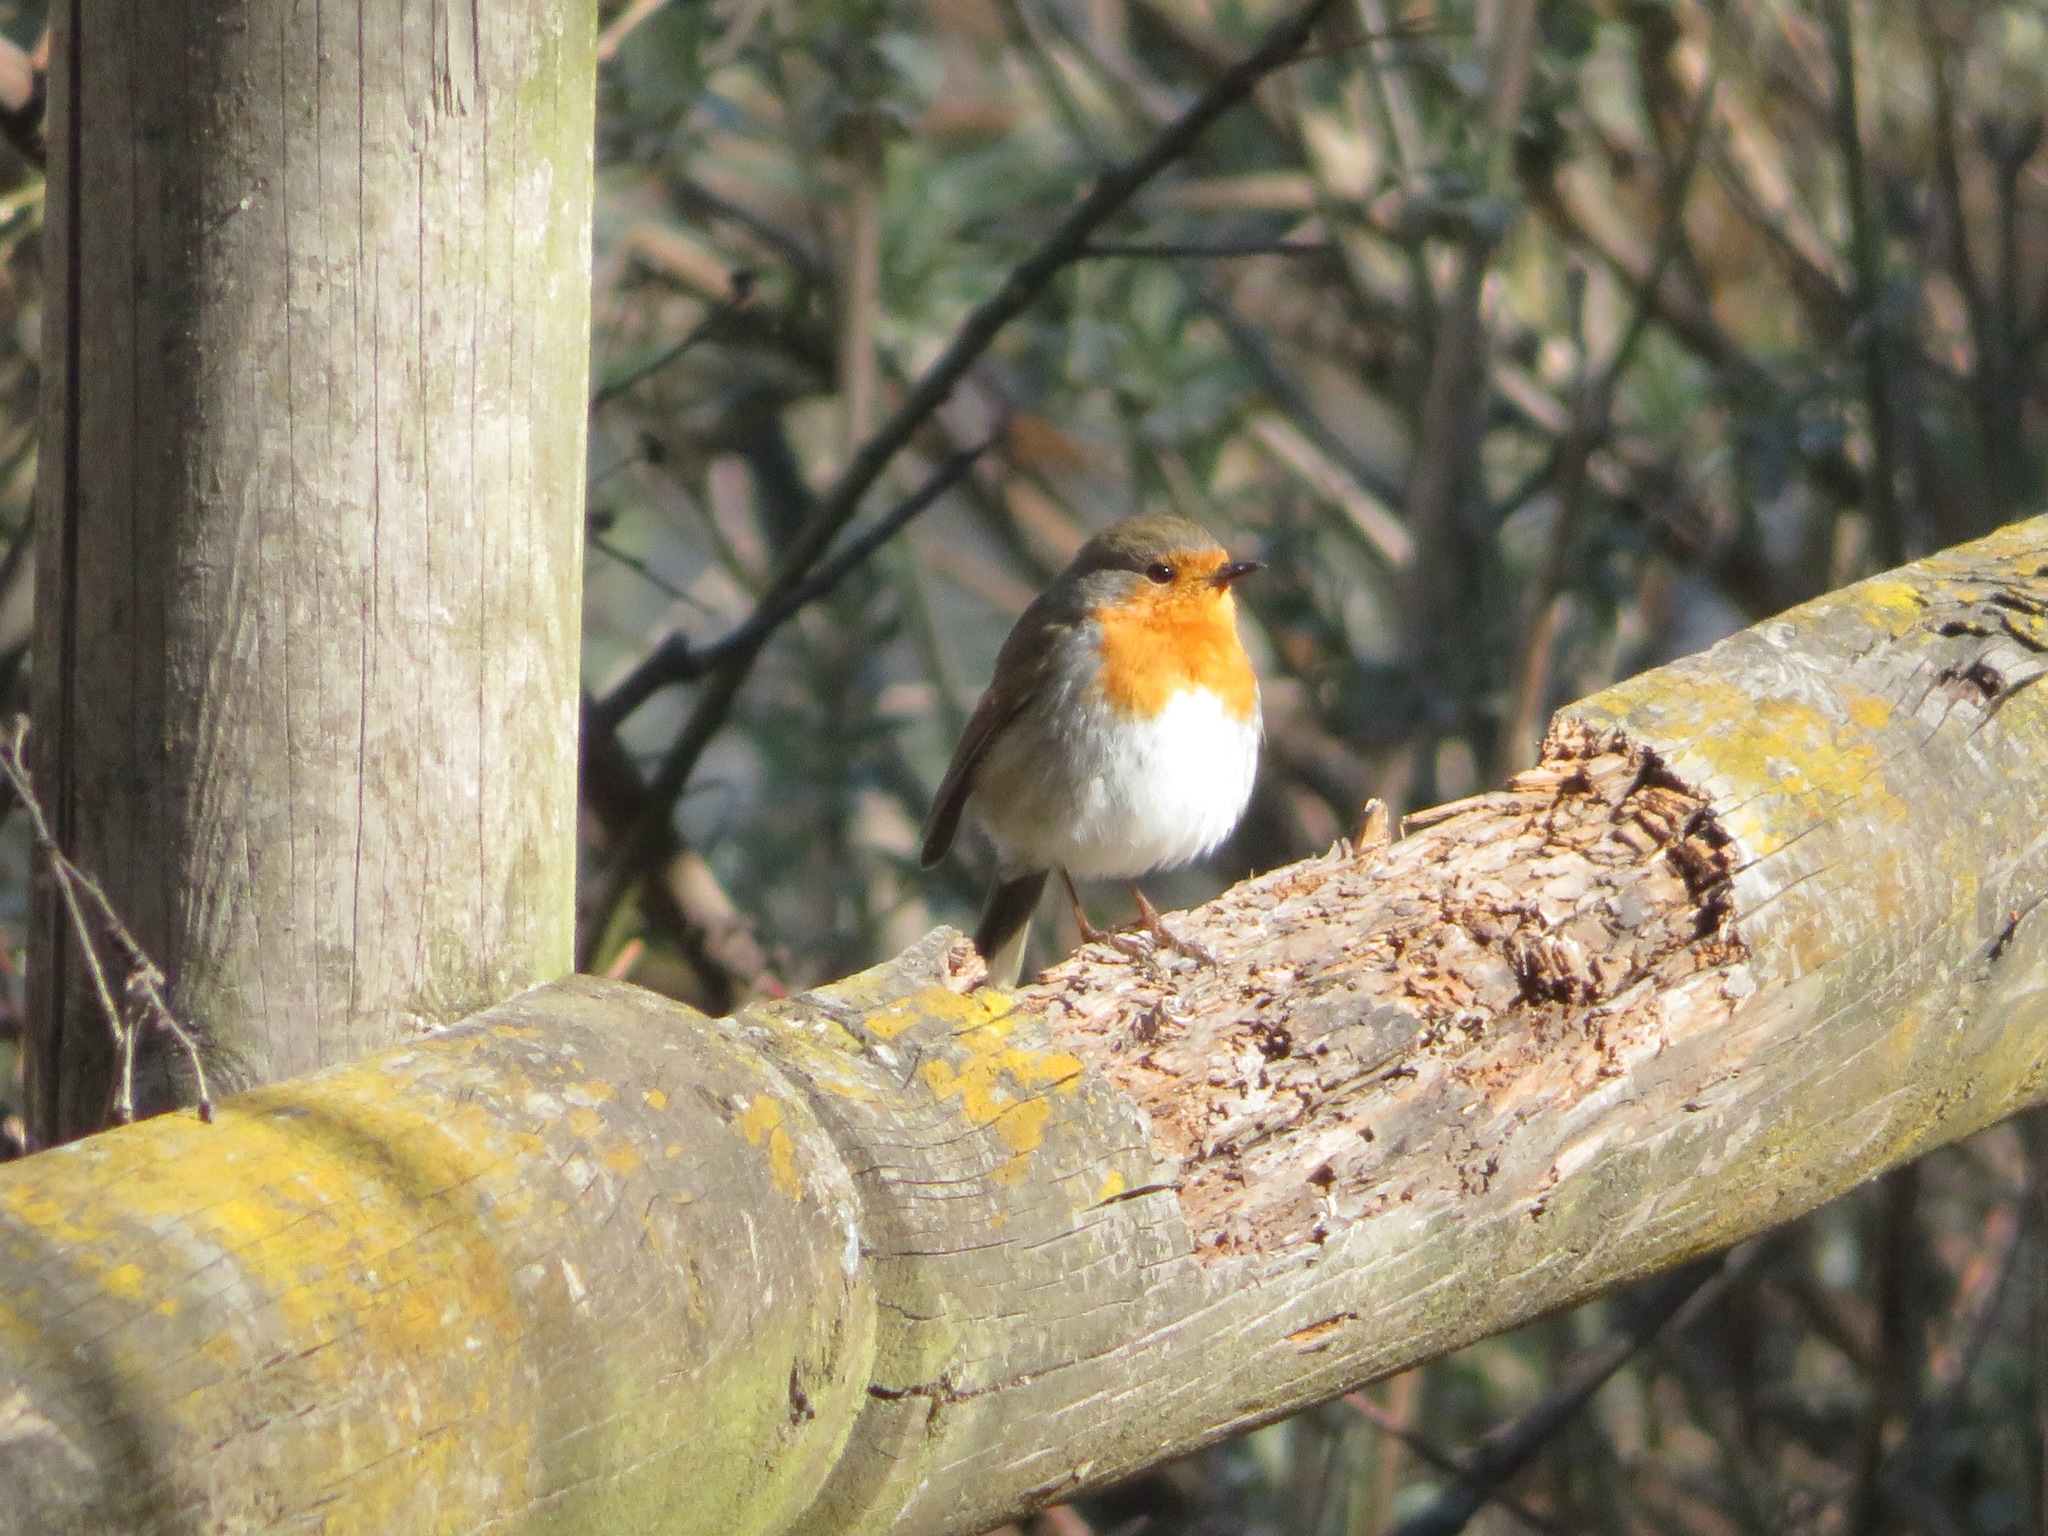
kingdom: Animalia
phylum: Chordata
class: Aves
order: Passeriformes
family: Muscicapidae
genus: Erithacus
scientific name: Erithacus rubecula
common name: European robin
